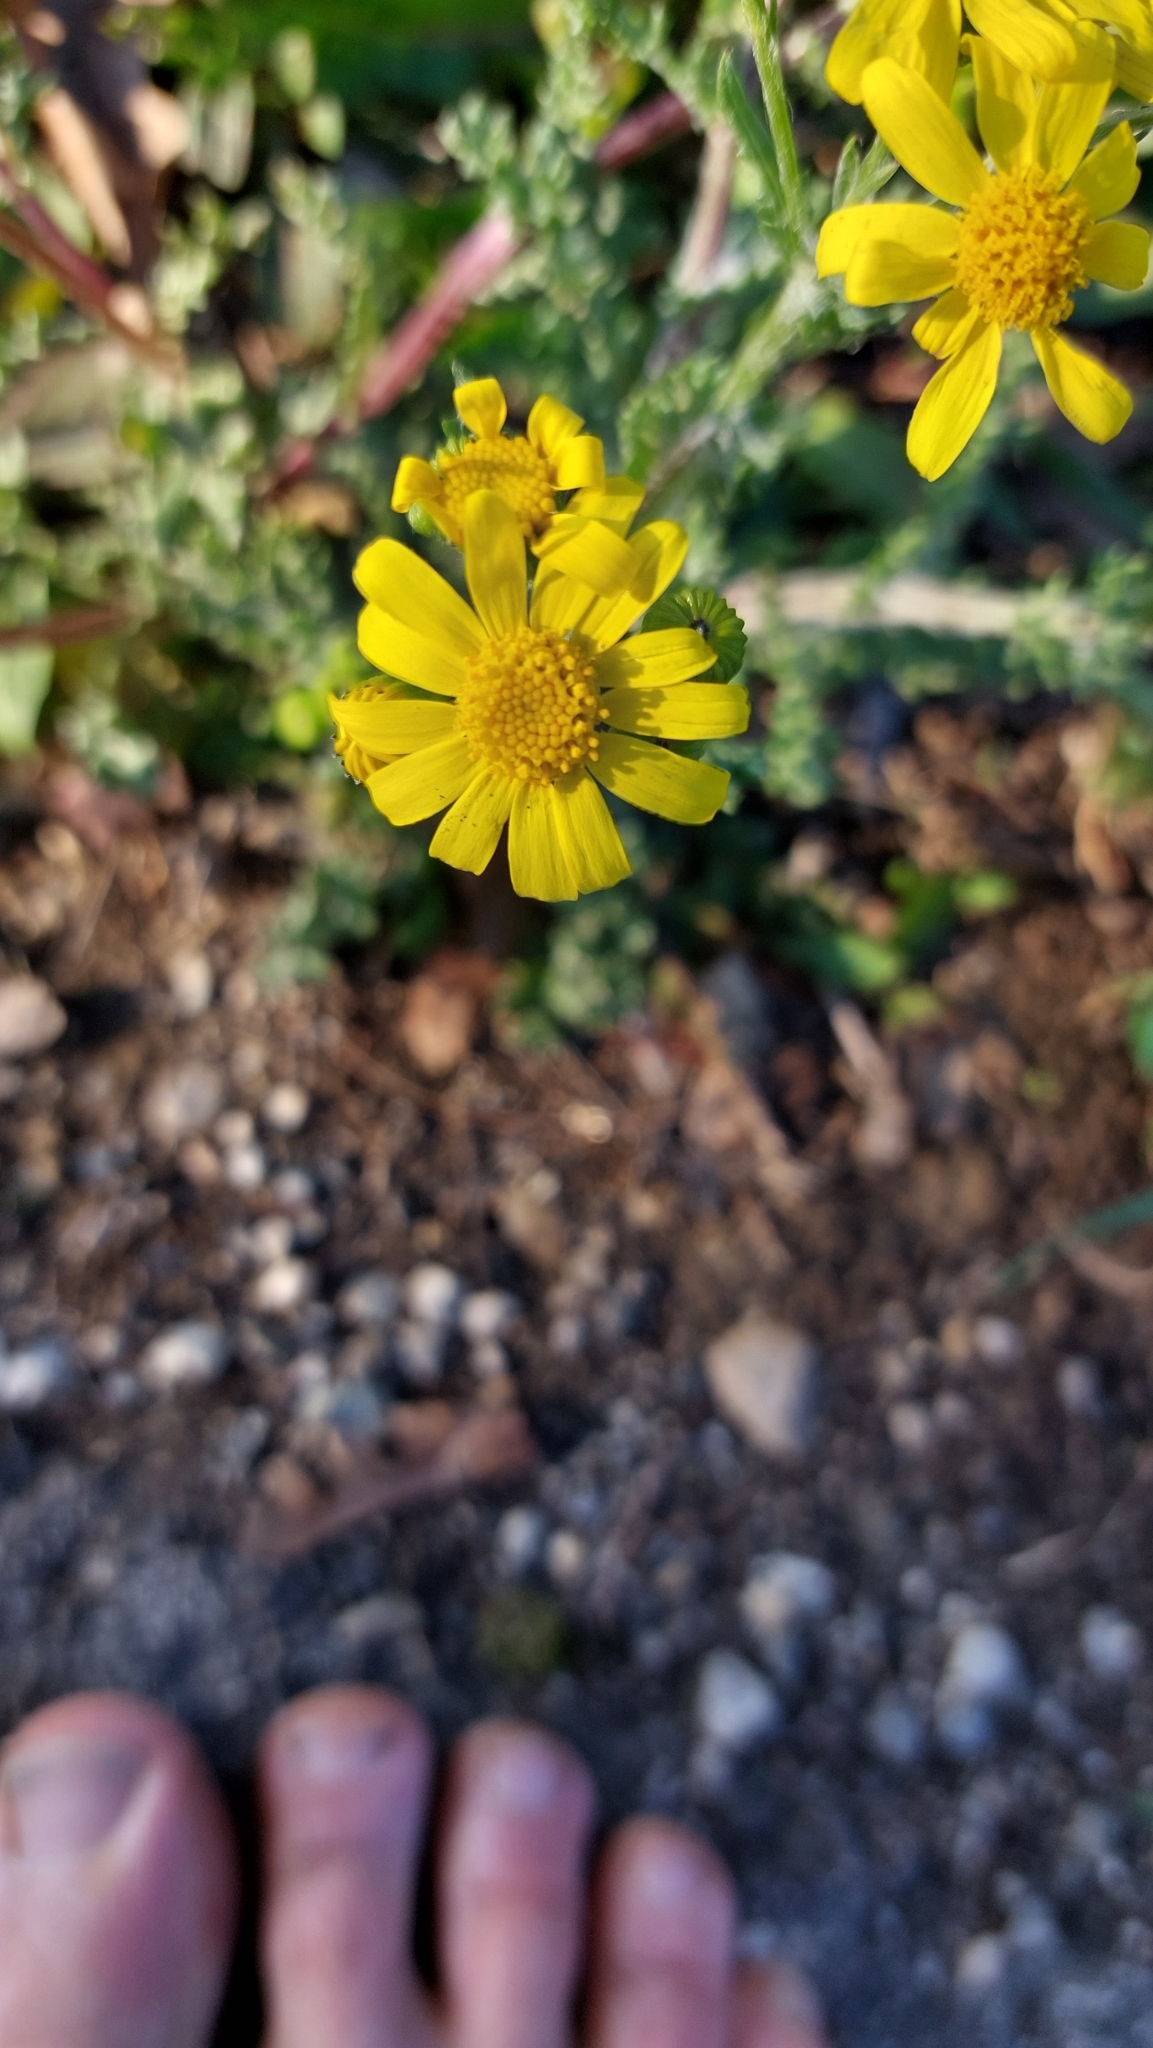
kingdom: Plantae
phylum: Tracheophyta
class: Magnoliopsida
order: Asterales
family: Asteraceae
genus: Senecio
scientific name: Senecio vernalis
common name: Eastern groundsel
